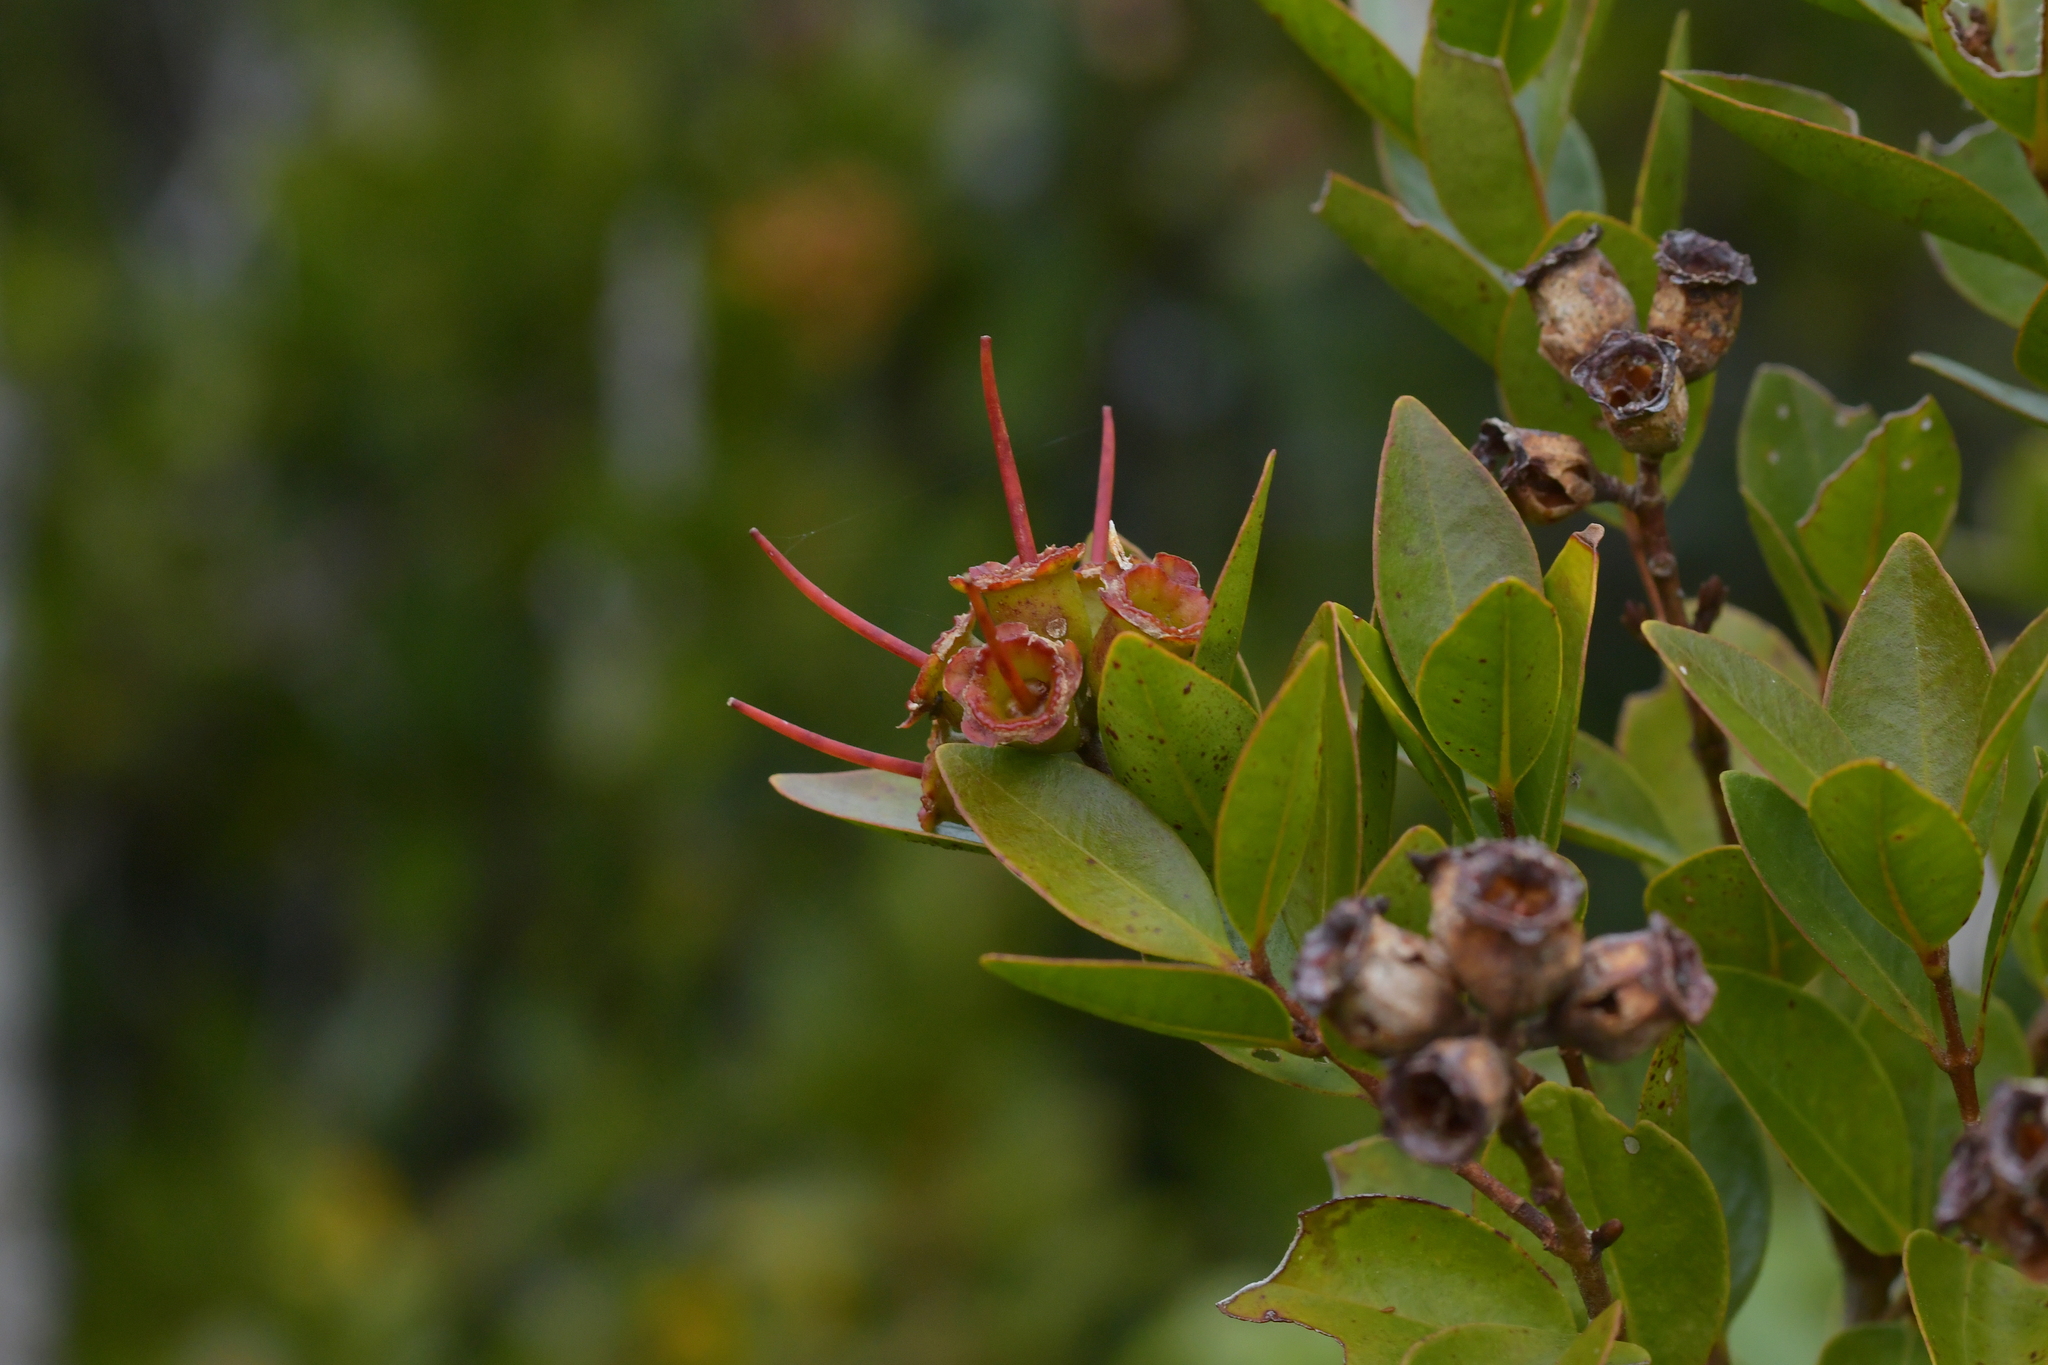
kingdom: Plantae
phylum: Tracheophyta
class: Magnoliopsida
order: Myrtales
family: Myrtaceae
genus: Metrosideros
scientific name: Metrosideros robusta
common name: Northern rata
